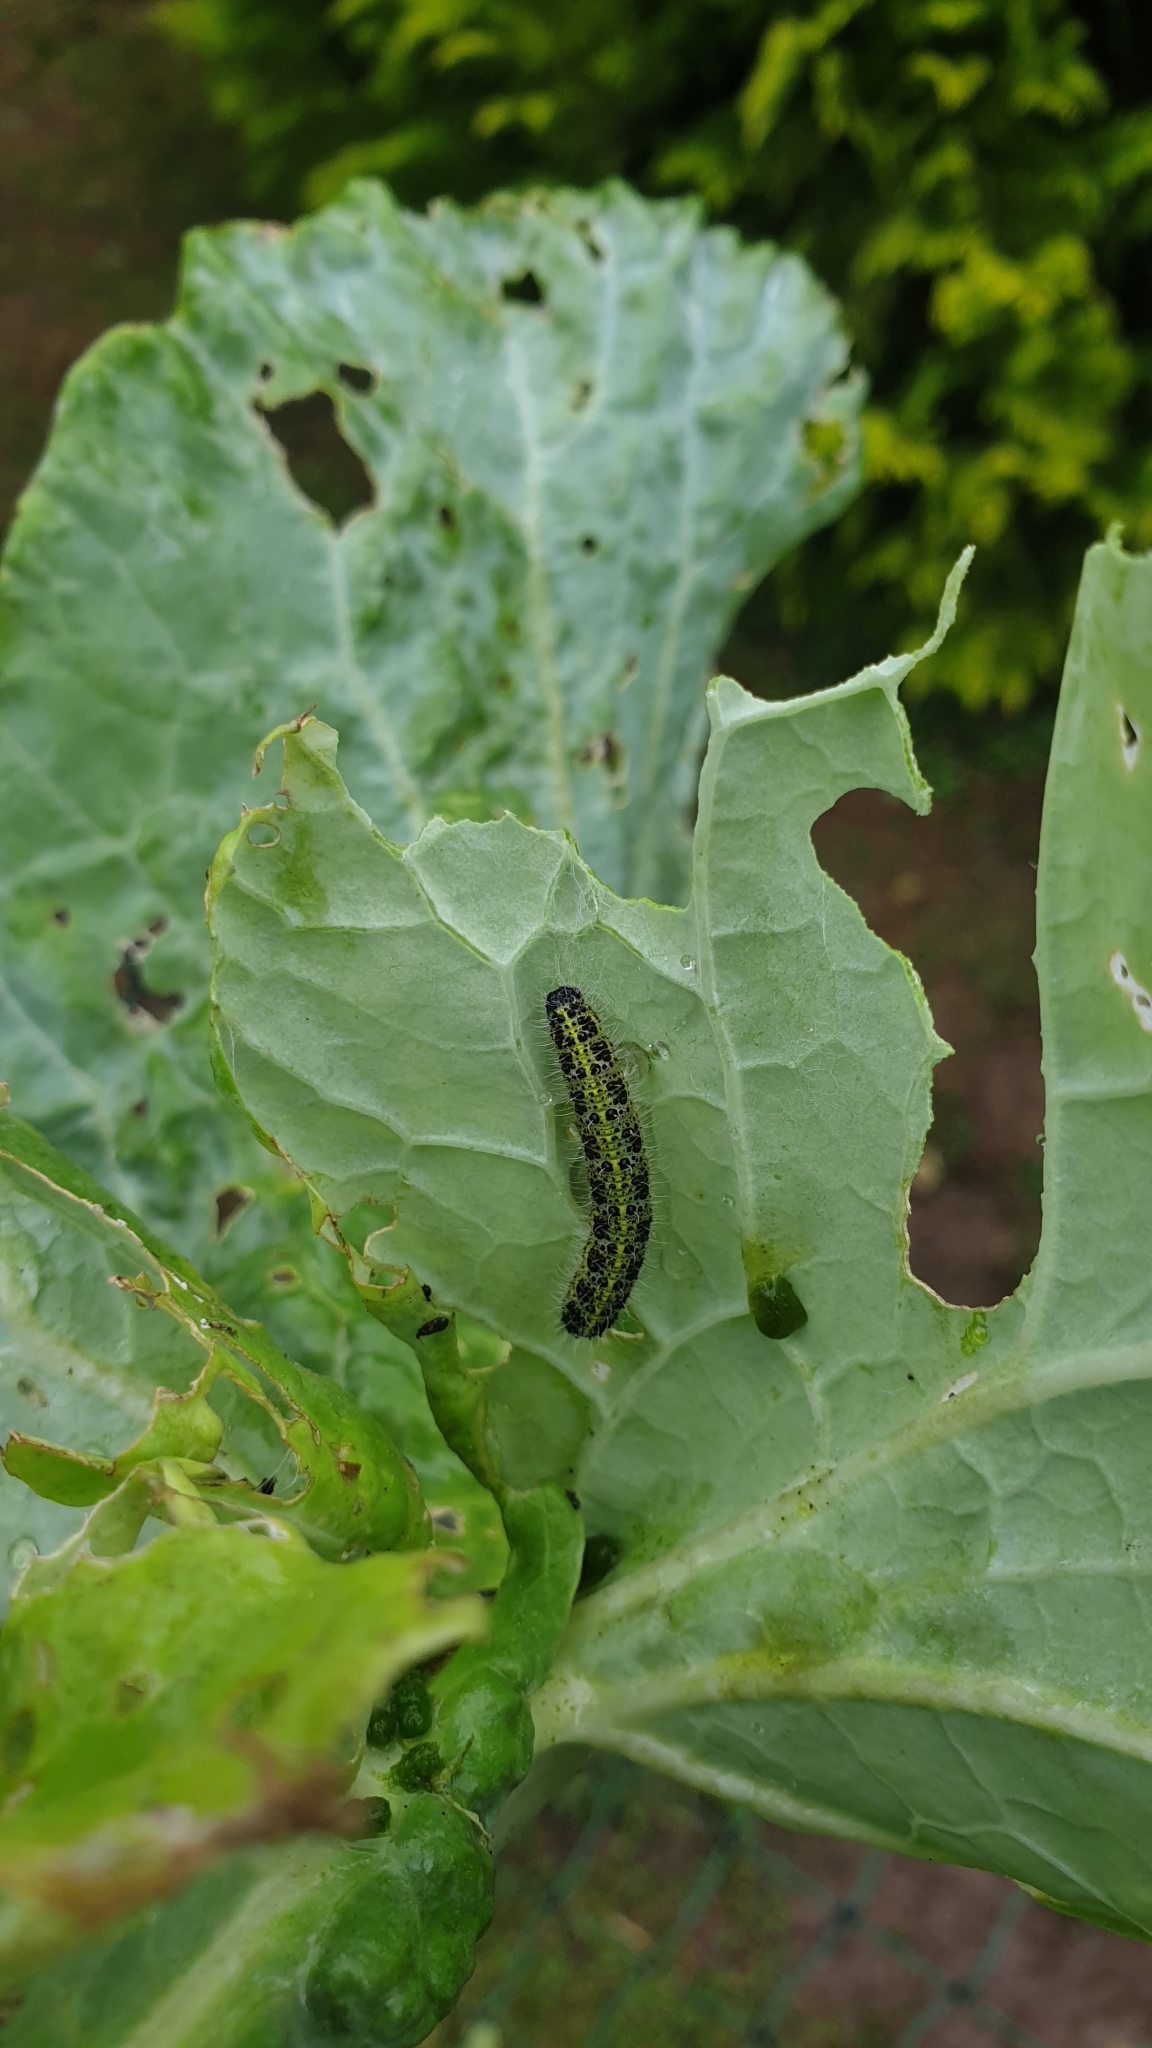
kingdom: Animalia
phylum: Arthropoda
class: Insecta
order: Lepidoptera
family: Pieridae
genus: Pieris
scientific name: Pieris brassicae
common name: Large white
